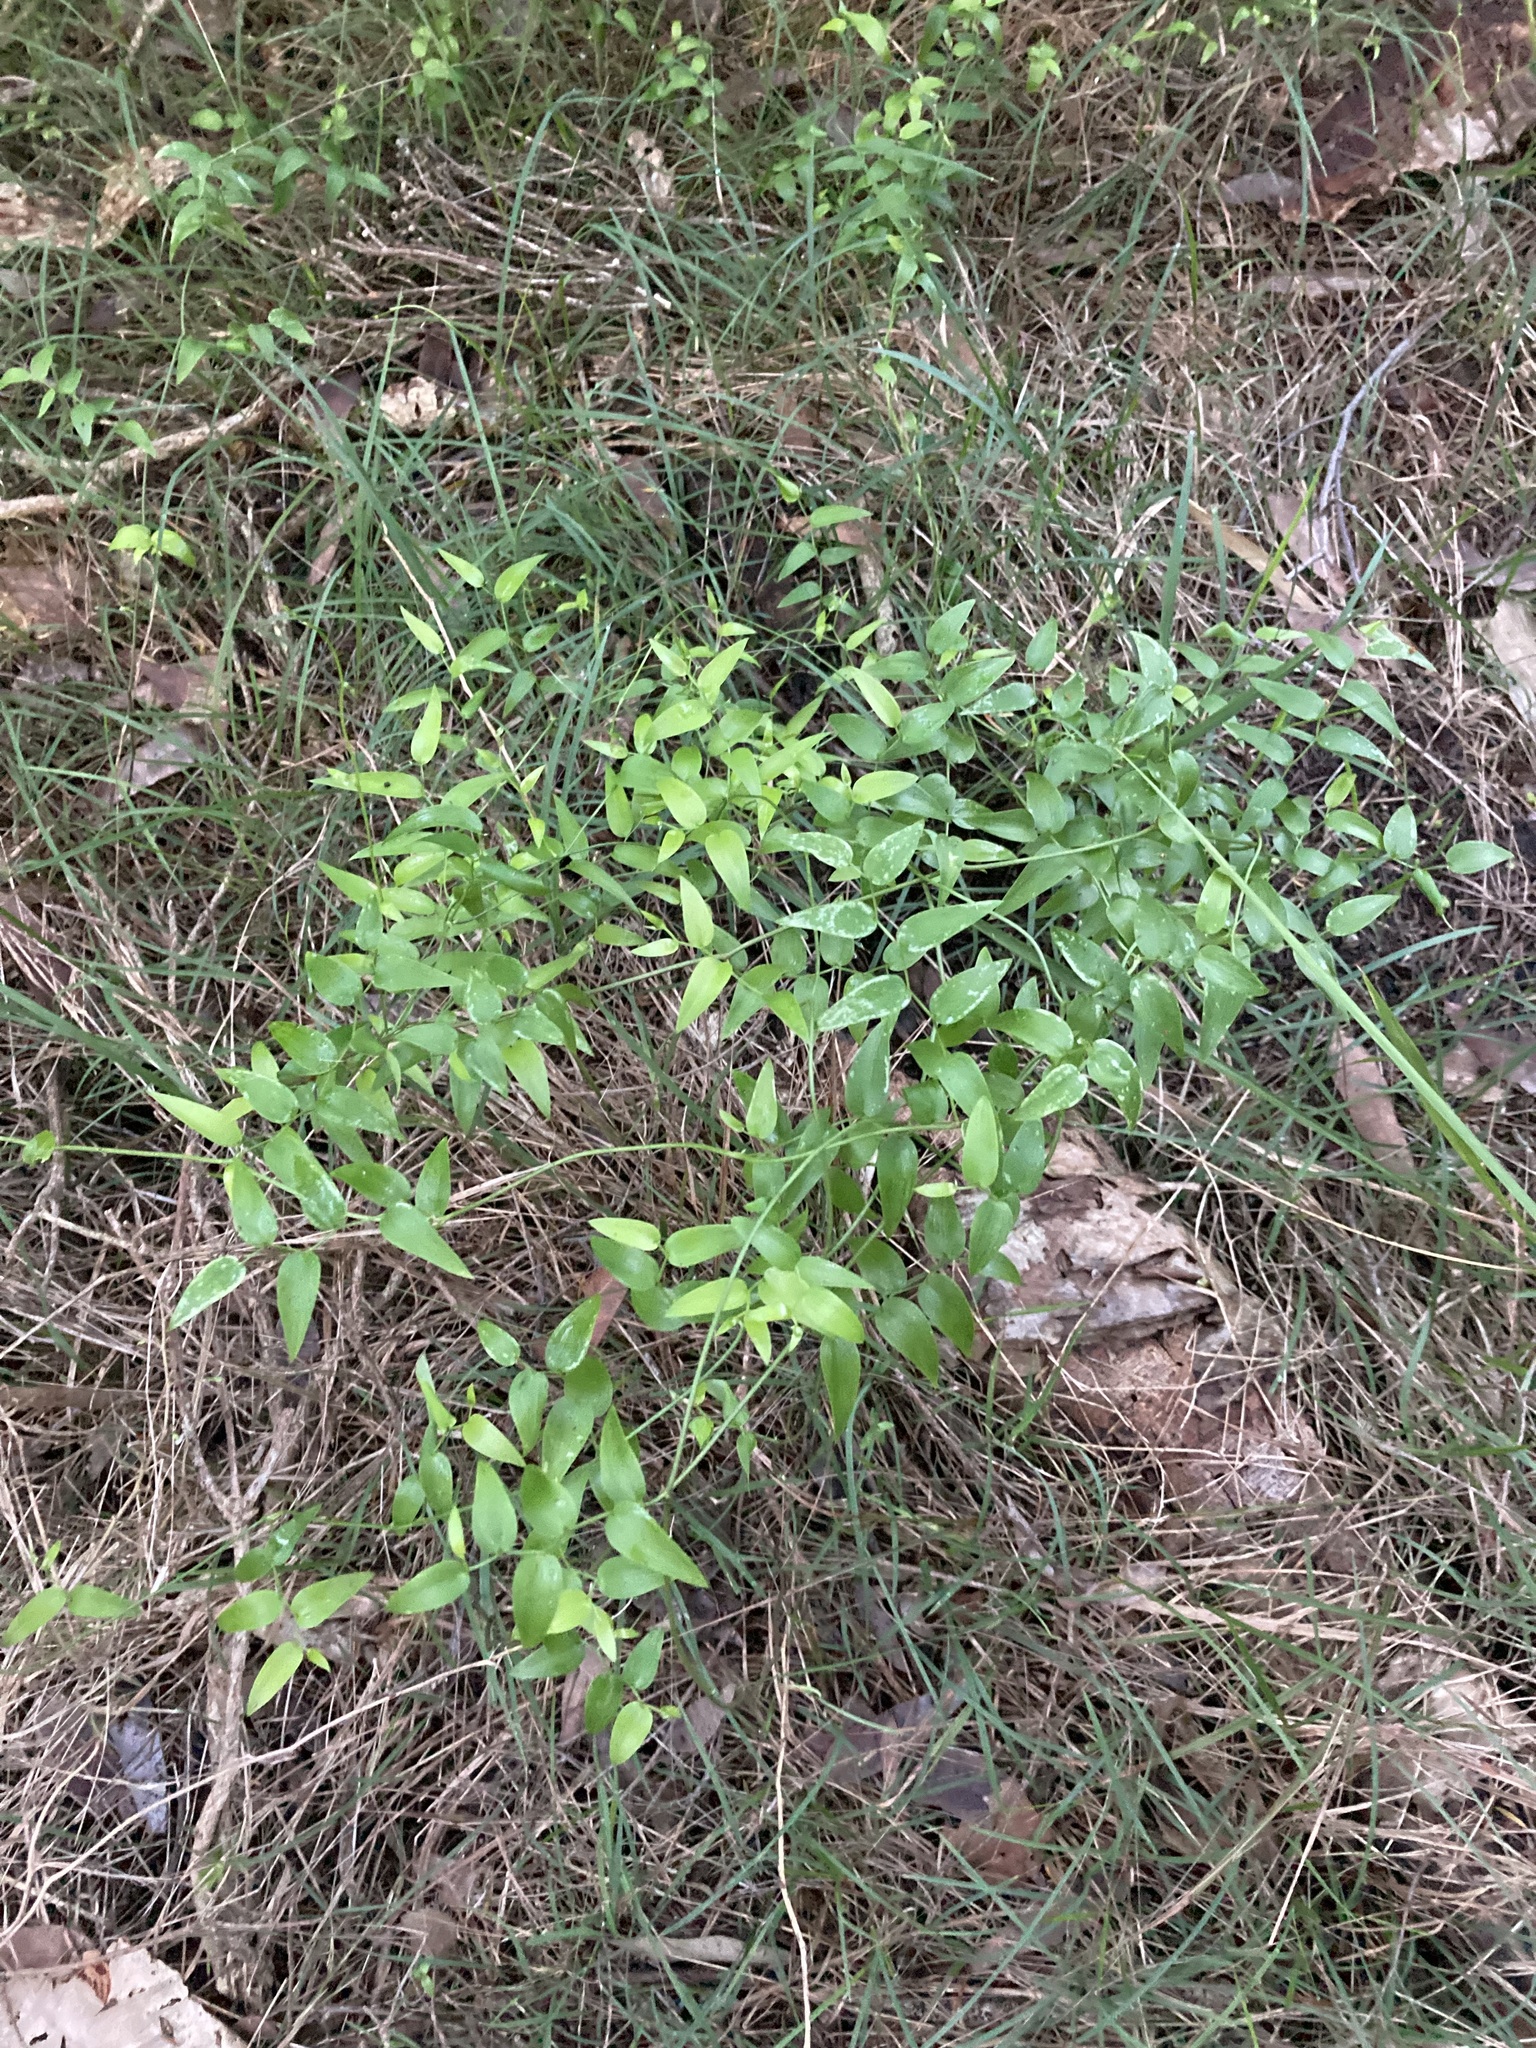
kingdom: Plantae
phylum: Tracheophyta
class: Liliopsida
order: Asparagales
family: Asparagaceae
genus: Asparagus
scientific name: Asparagus asparagoides
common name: African asparagus fern
